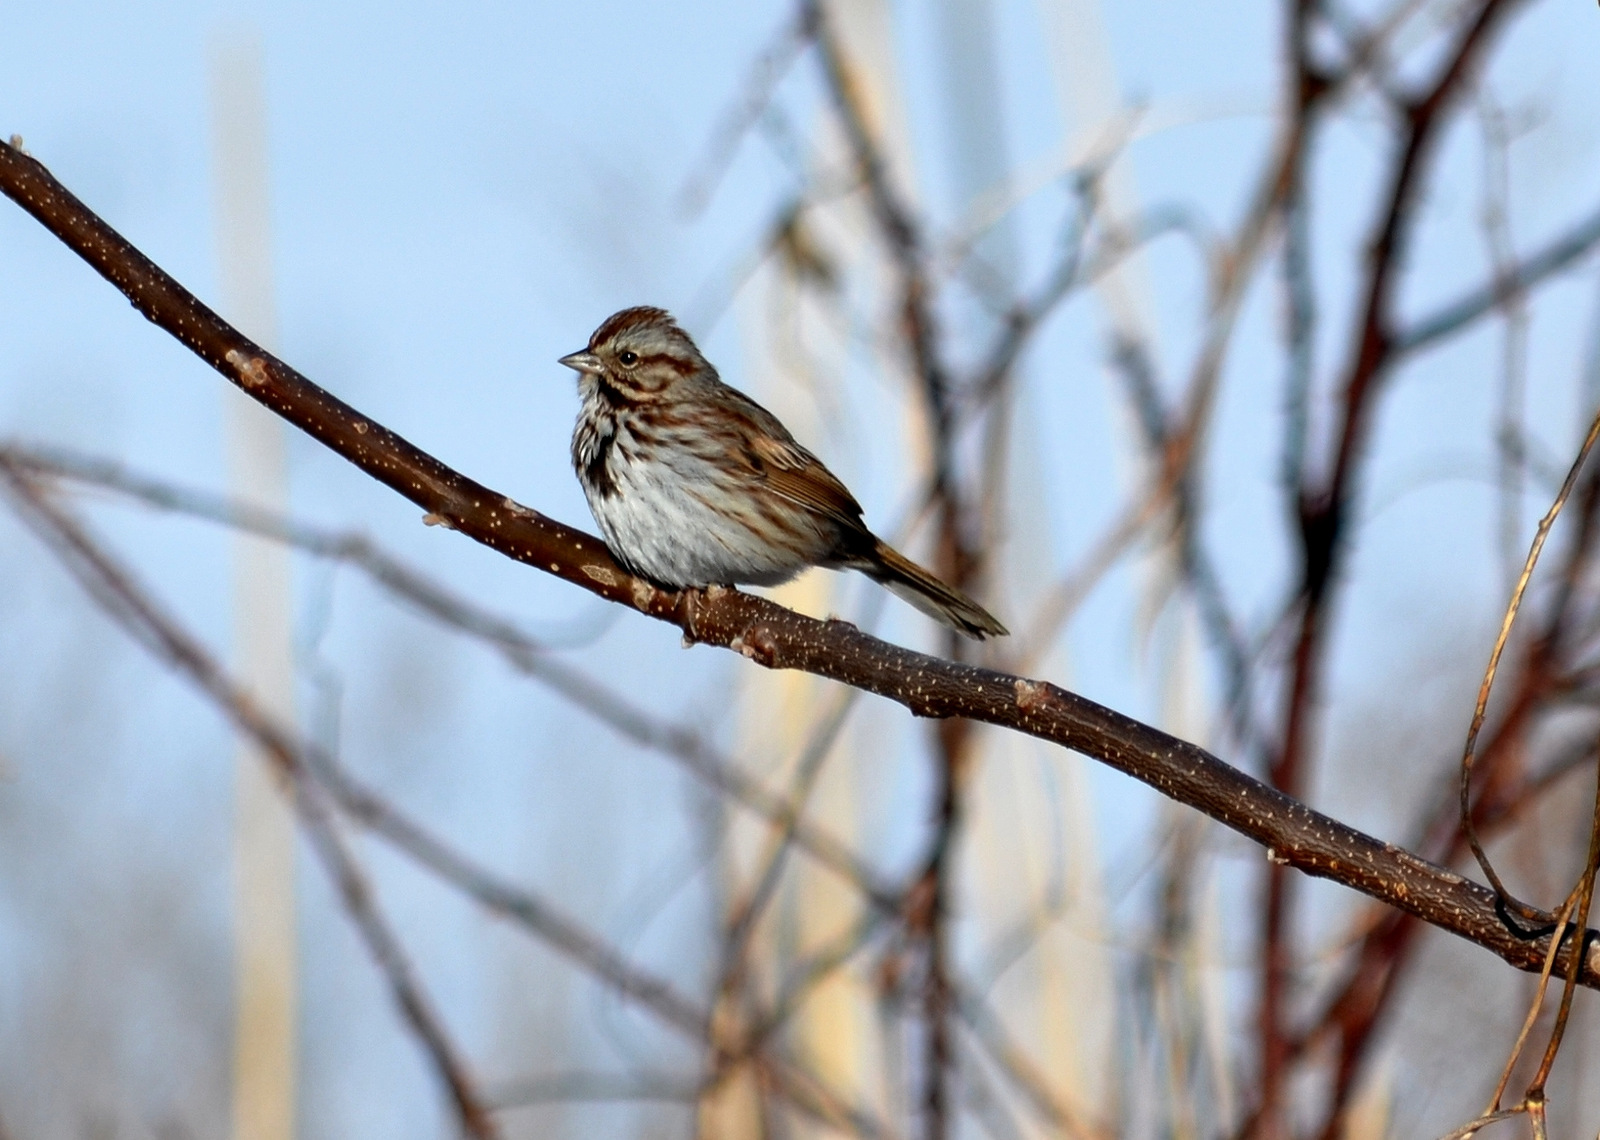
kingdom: Animalia
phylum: Chordata
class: Aves
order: Passeriformes
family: Passerellidae
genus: Melospiza
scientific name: Melospiza melodia
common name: Song sparrow
